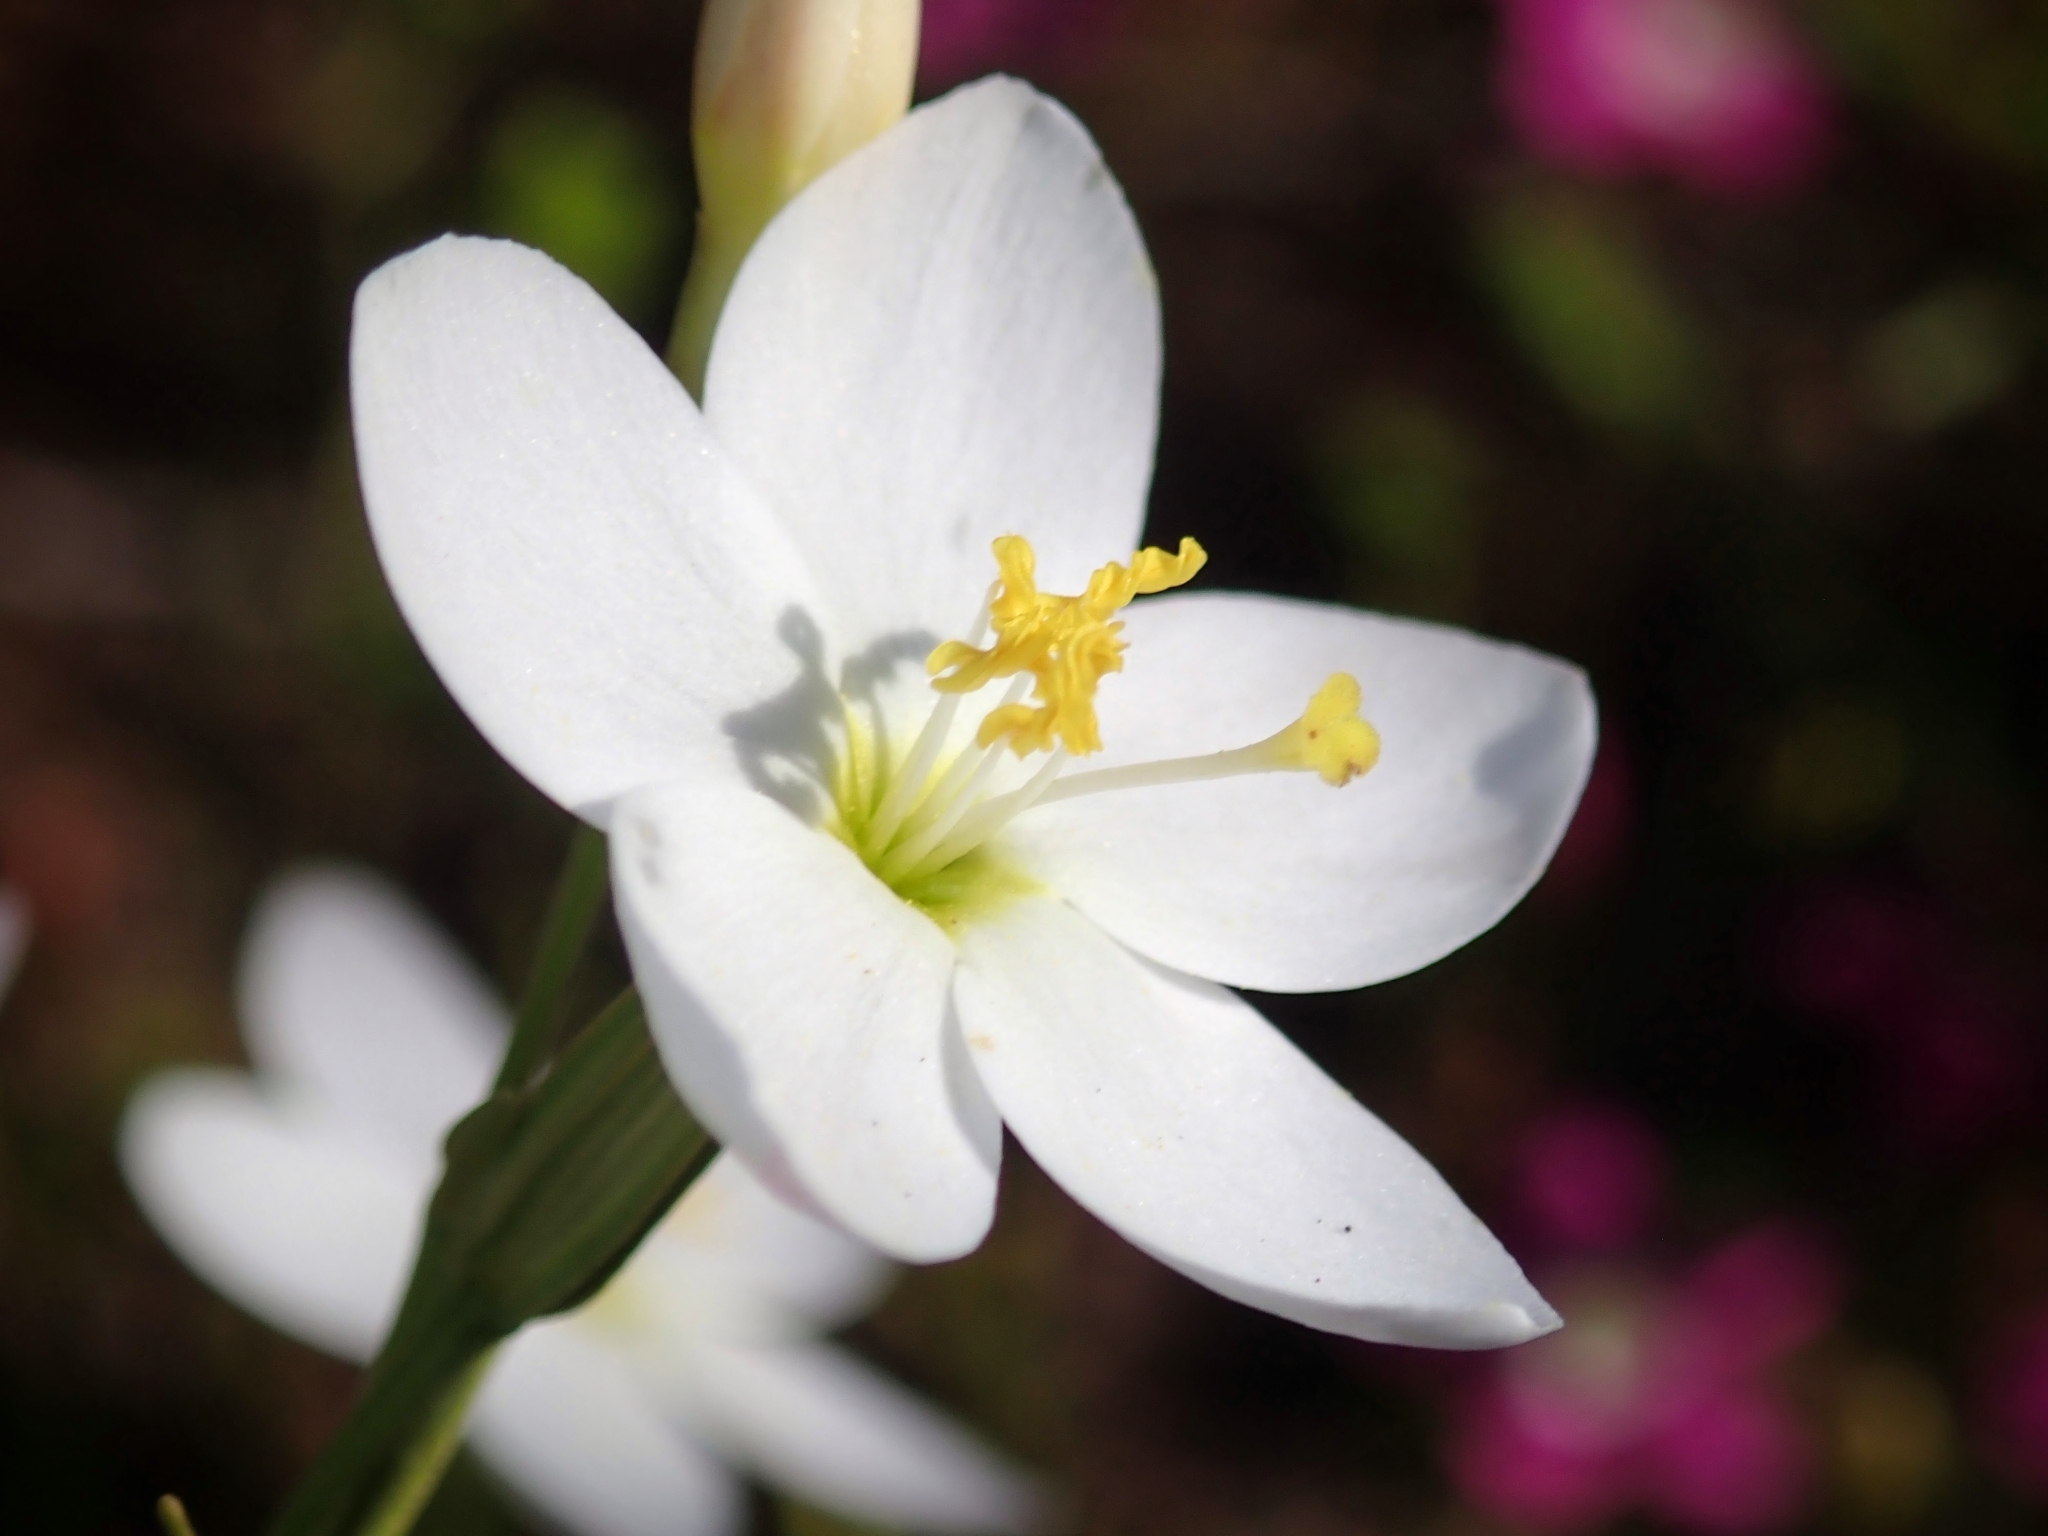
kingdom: Plantae
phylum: Tracheophyta
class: Magnoliopsida
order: Gentianales
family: Gentianaceae
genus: Zeltnera
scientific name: Zeltnera venusta
